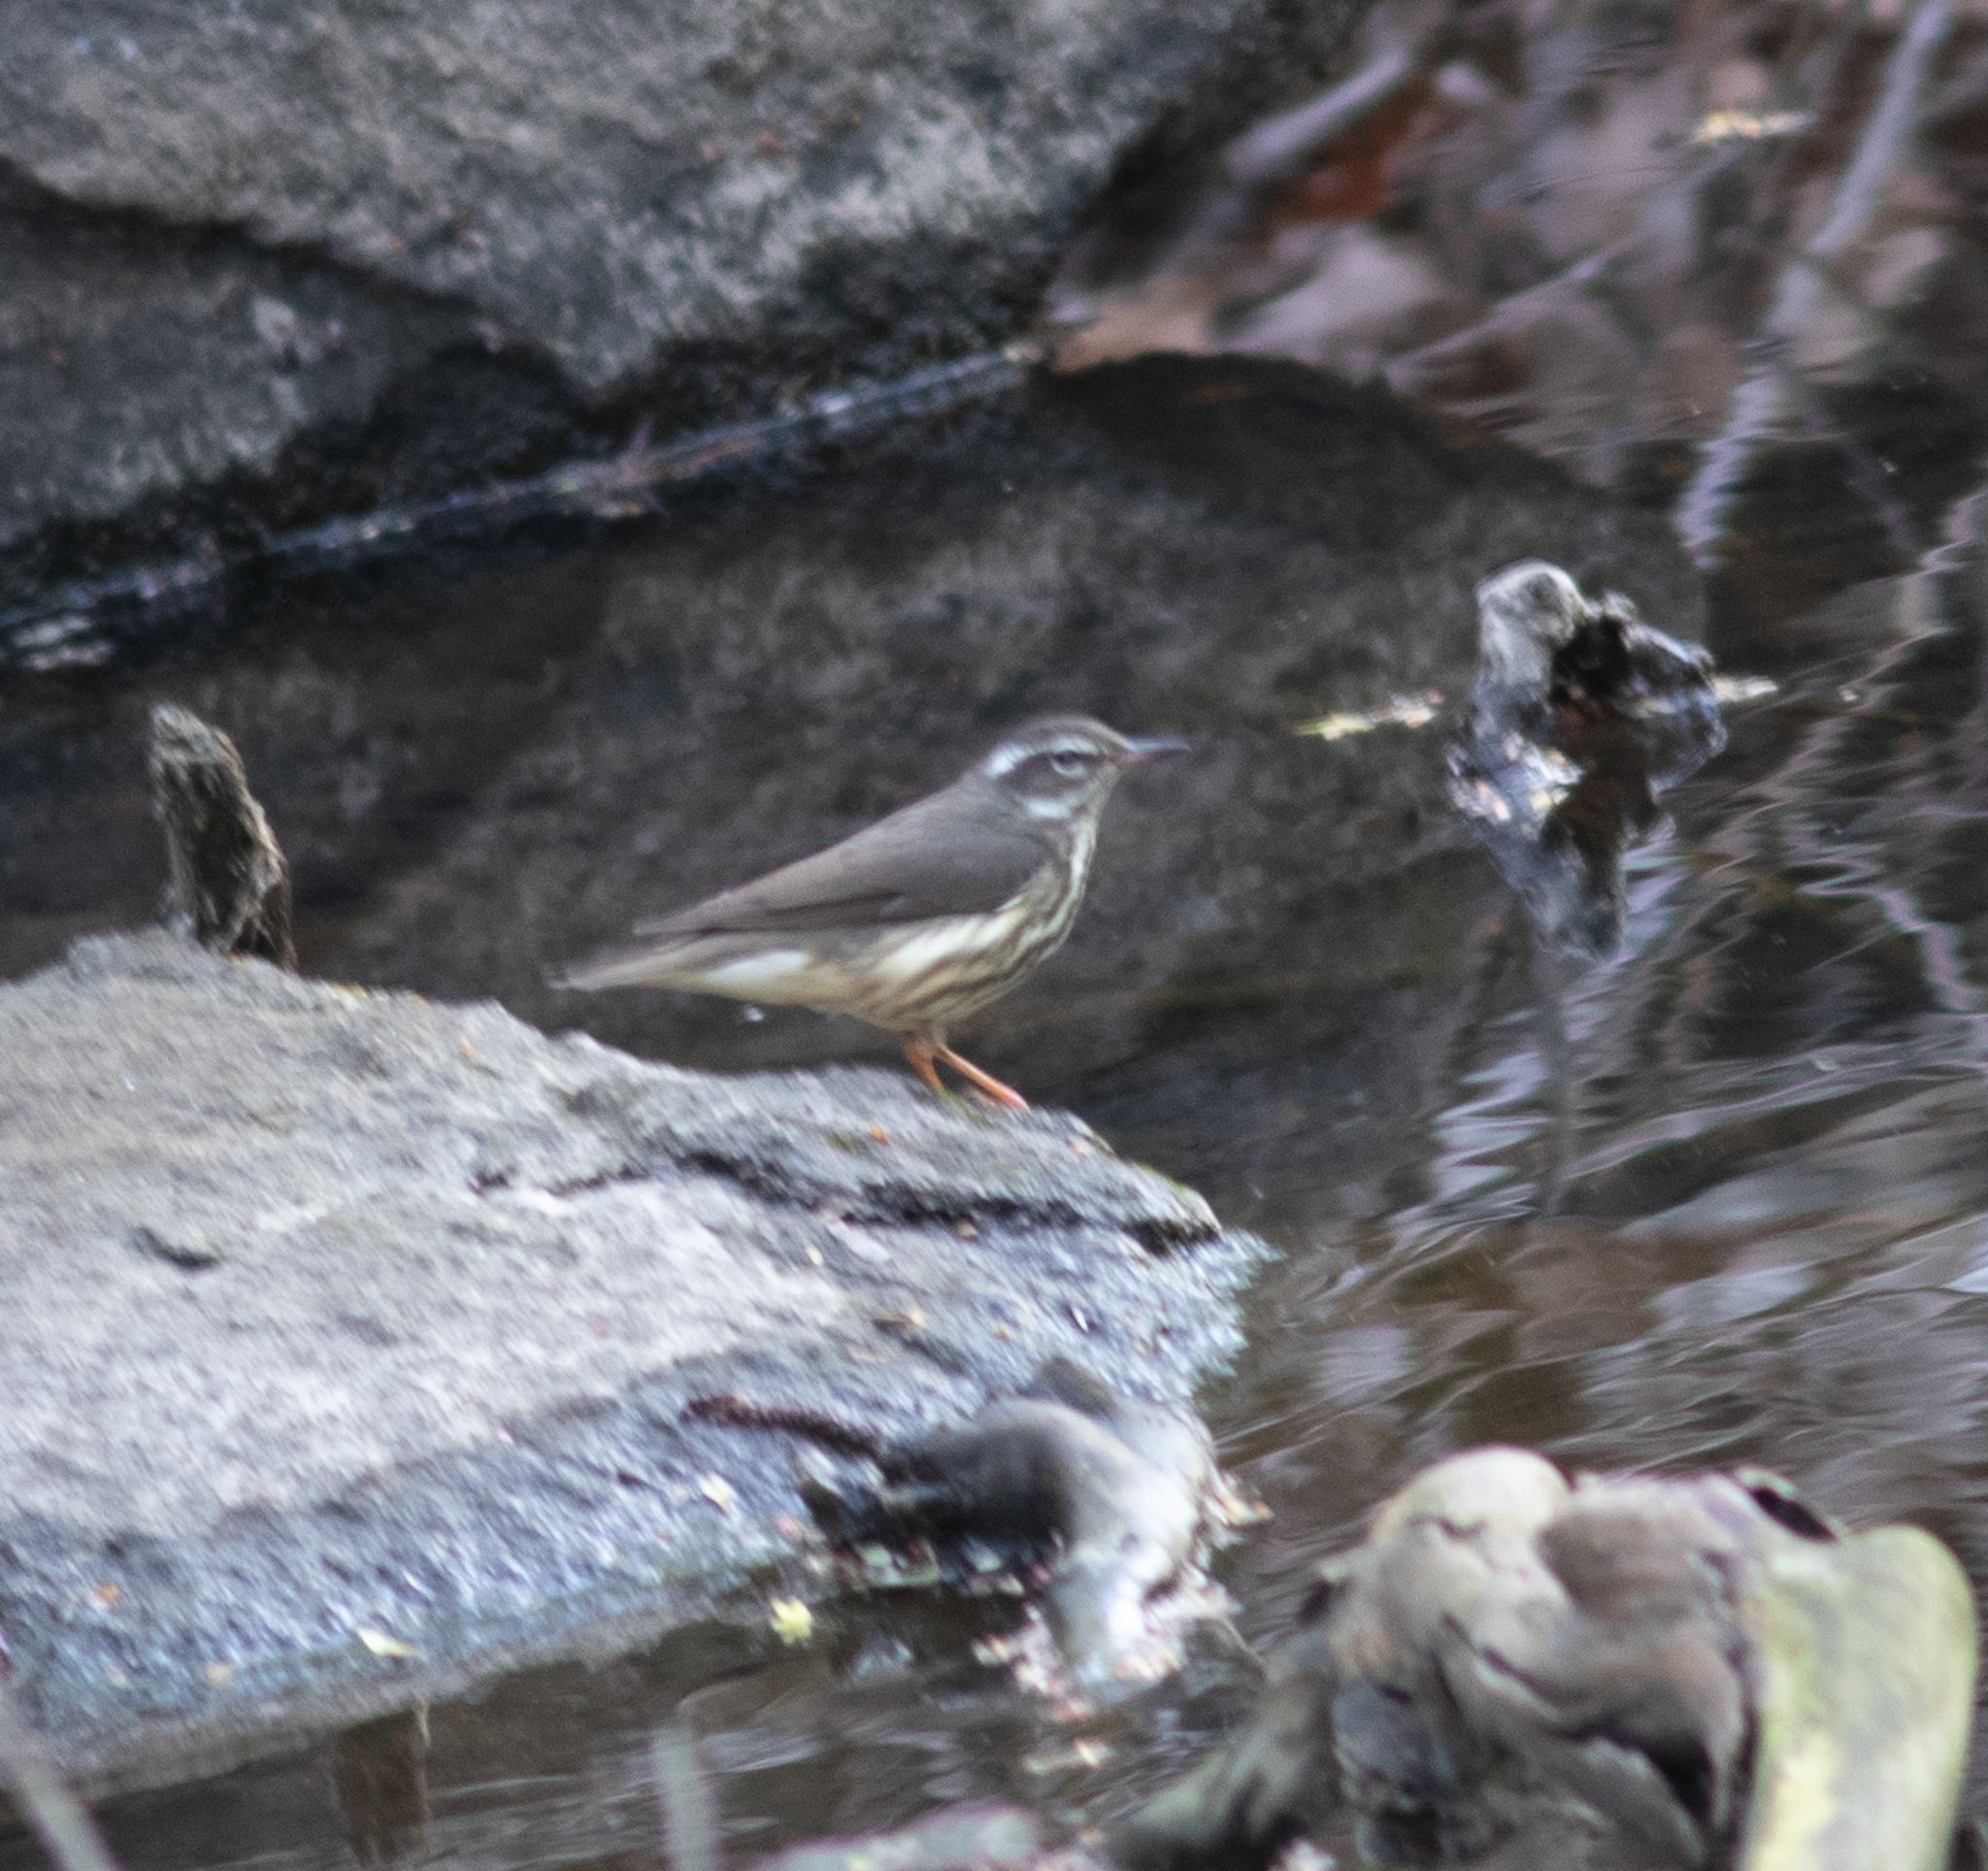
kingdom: Animalia
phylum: Chordata
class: Aves
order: Passeriformes
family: Parulidae
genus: Parkesia
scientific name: Parkesia motacilla
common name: Louisiana waterthrush
